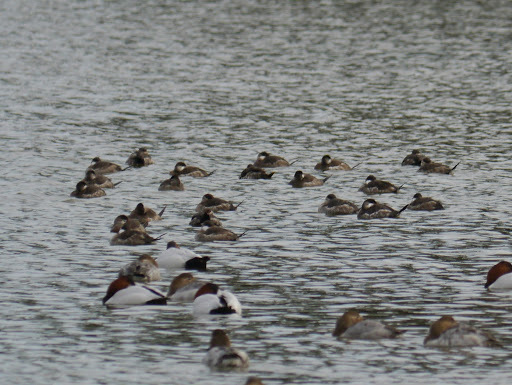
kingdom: Animalia
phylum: Chordata
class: Aves
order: Anseriformes
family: Anatidae
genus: Oxyura
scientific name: Oxyura jamaicensis
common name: Ruddy duck
